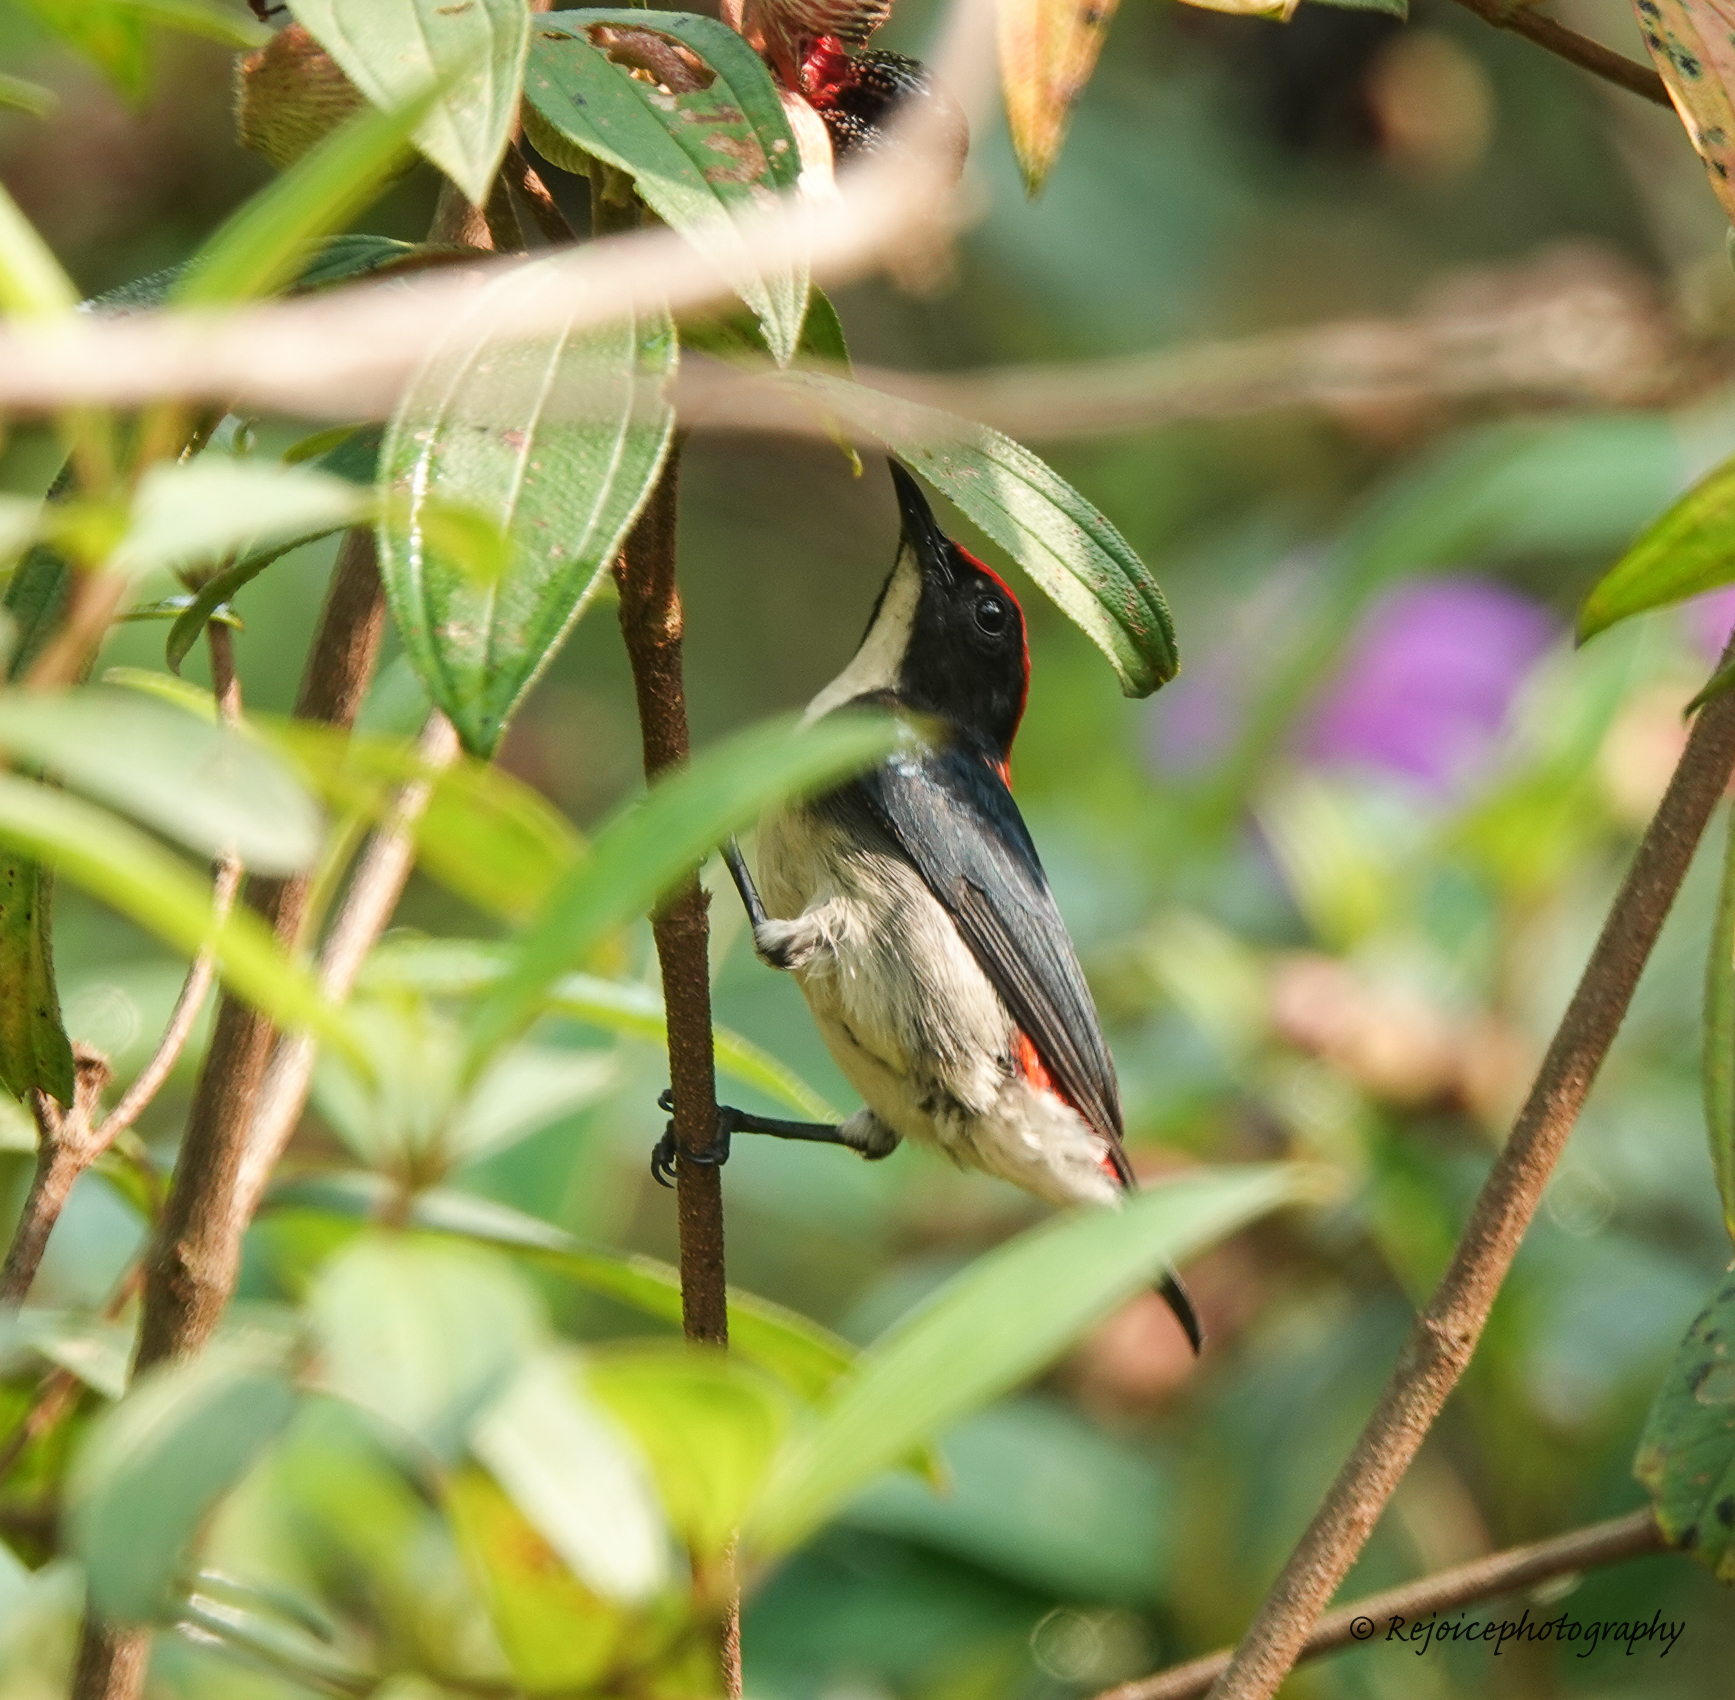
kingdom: Animalia
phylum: Chordata
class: Aves
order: Passeriformes
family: Dicaeidae
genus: Dicaeum
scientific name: Dicaeum cruentatum
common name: Scarlet-backed flowerpecker
